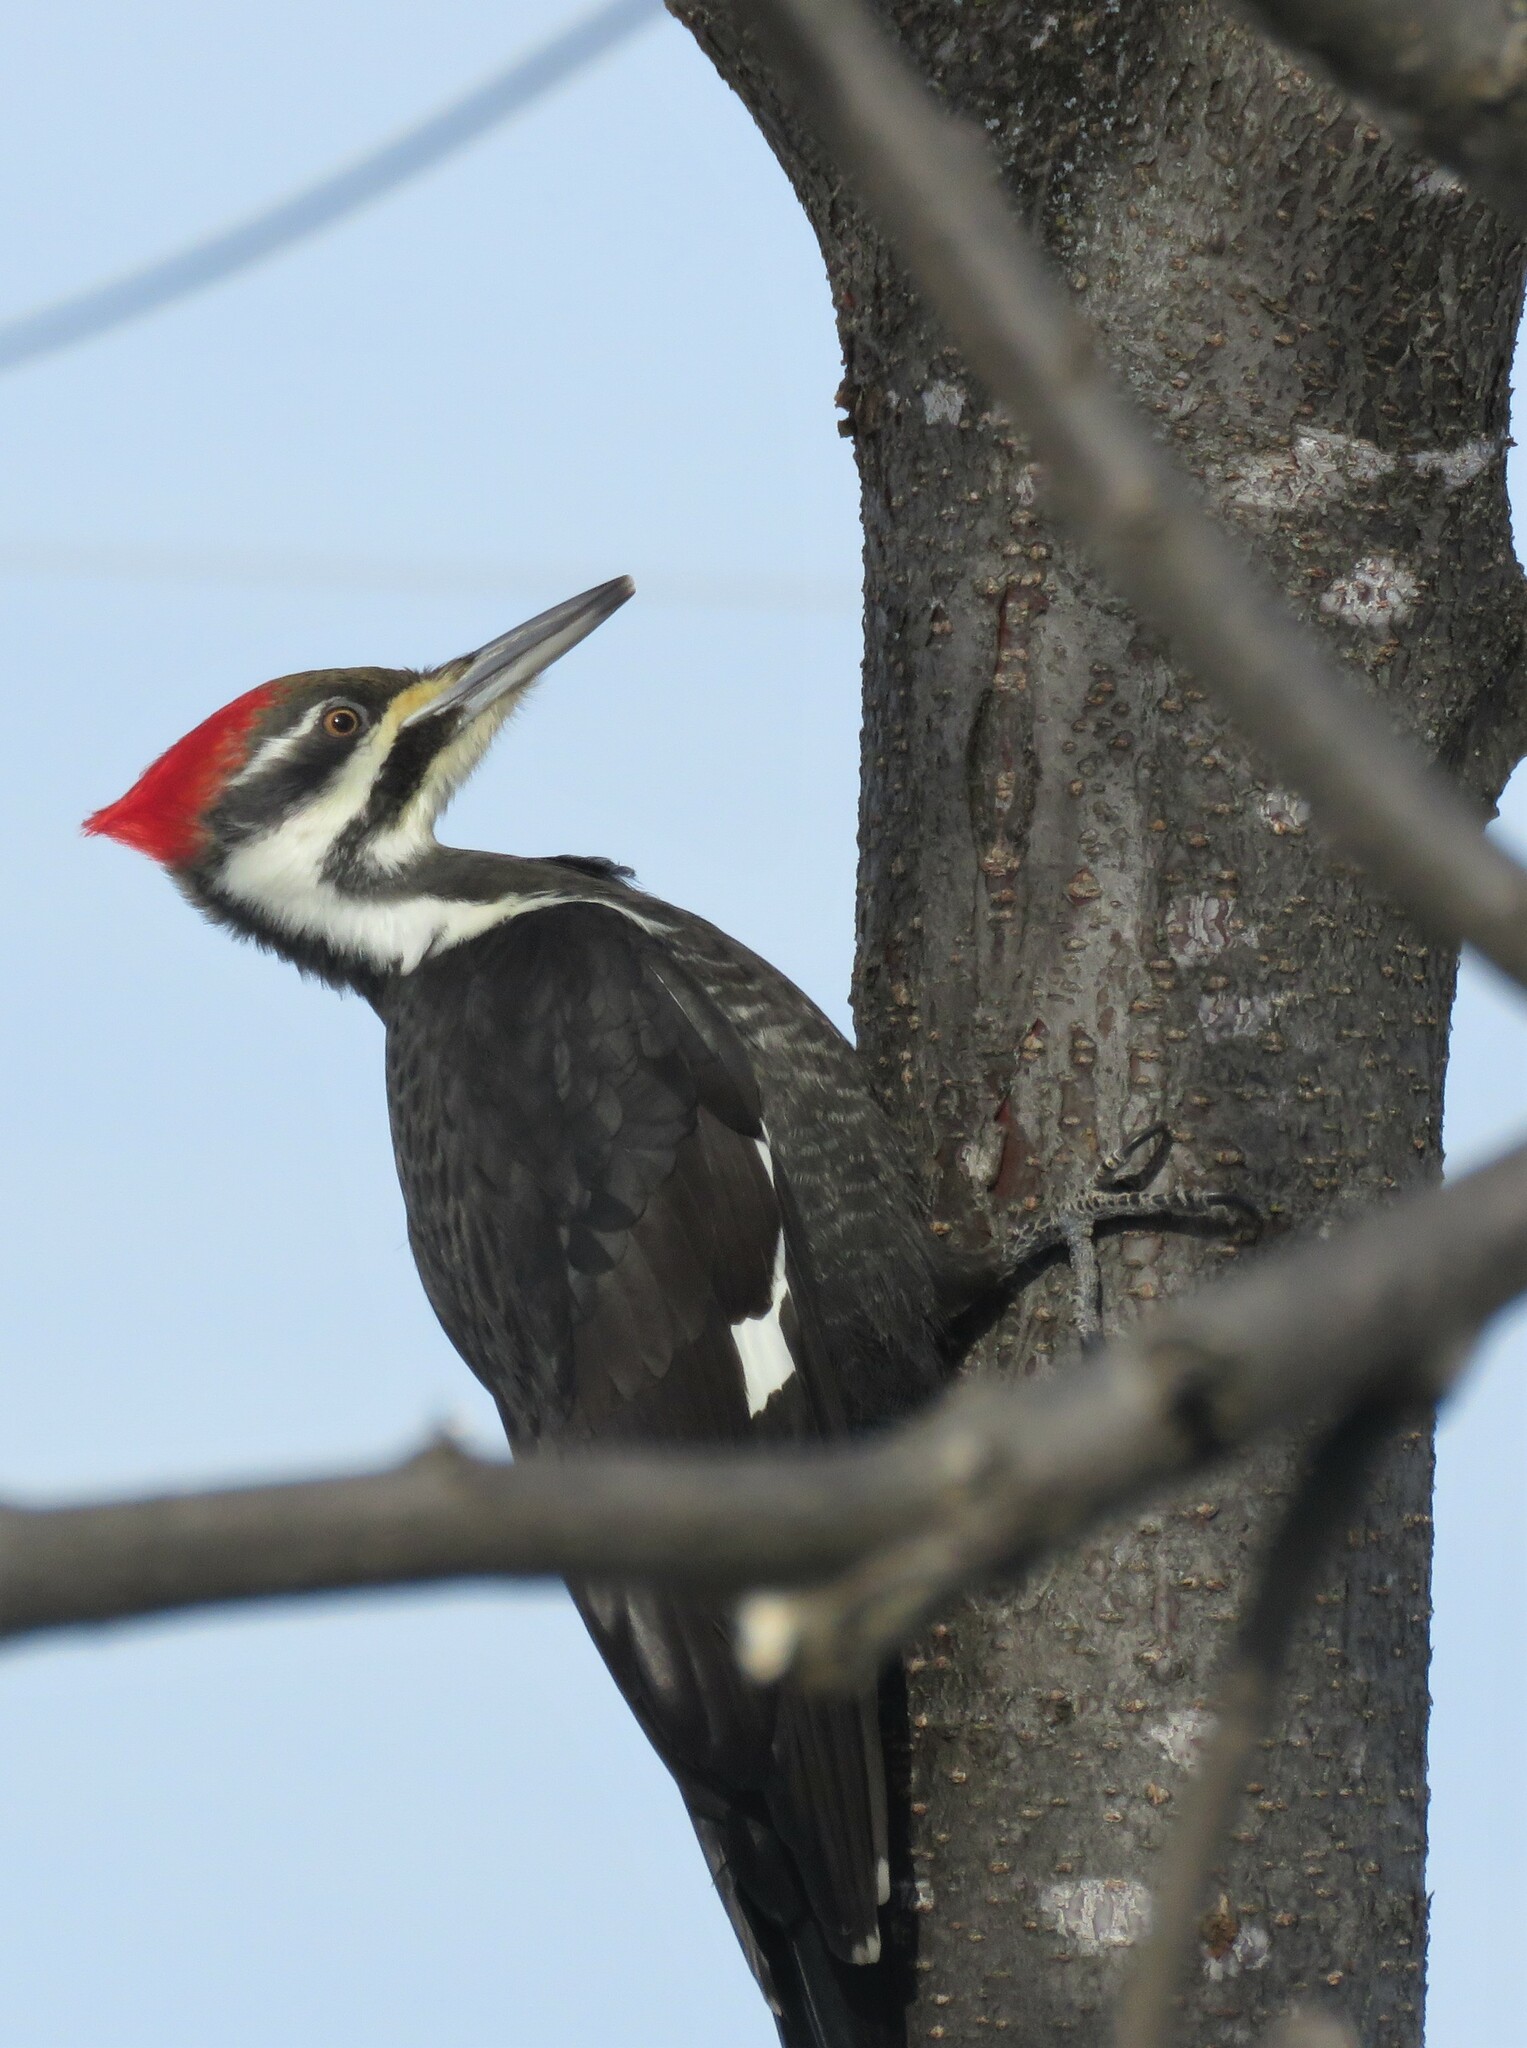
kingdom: Animalia
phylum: Chordata
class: Aves
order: Piciformes
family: Picidae
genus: Dryocopus
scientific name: Dryocopus pileatus
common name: Pileated woodpecker
